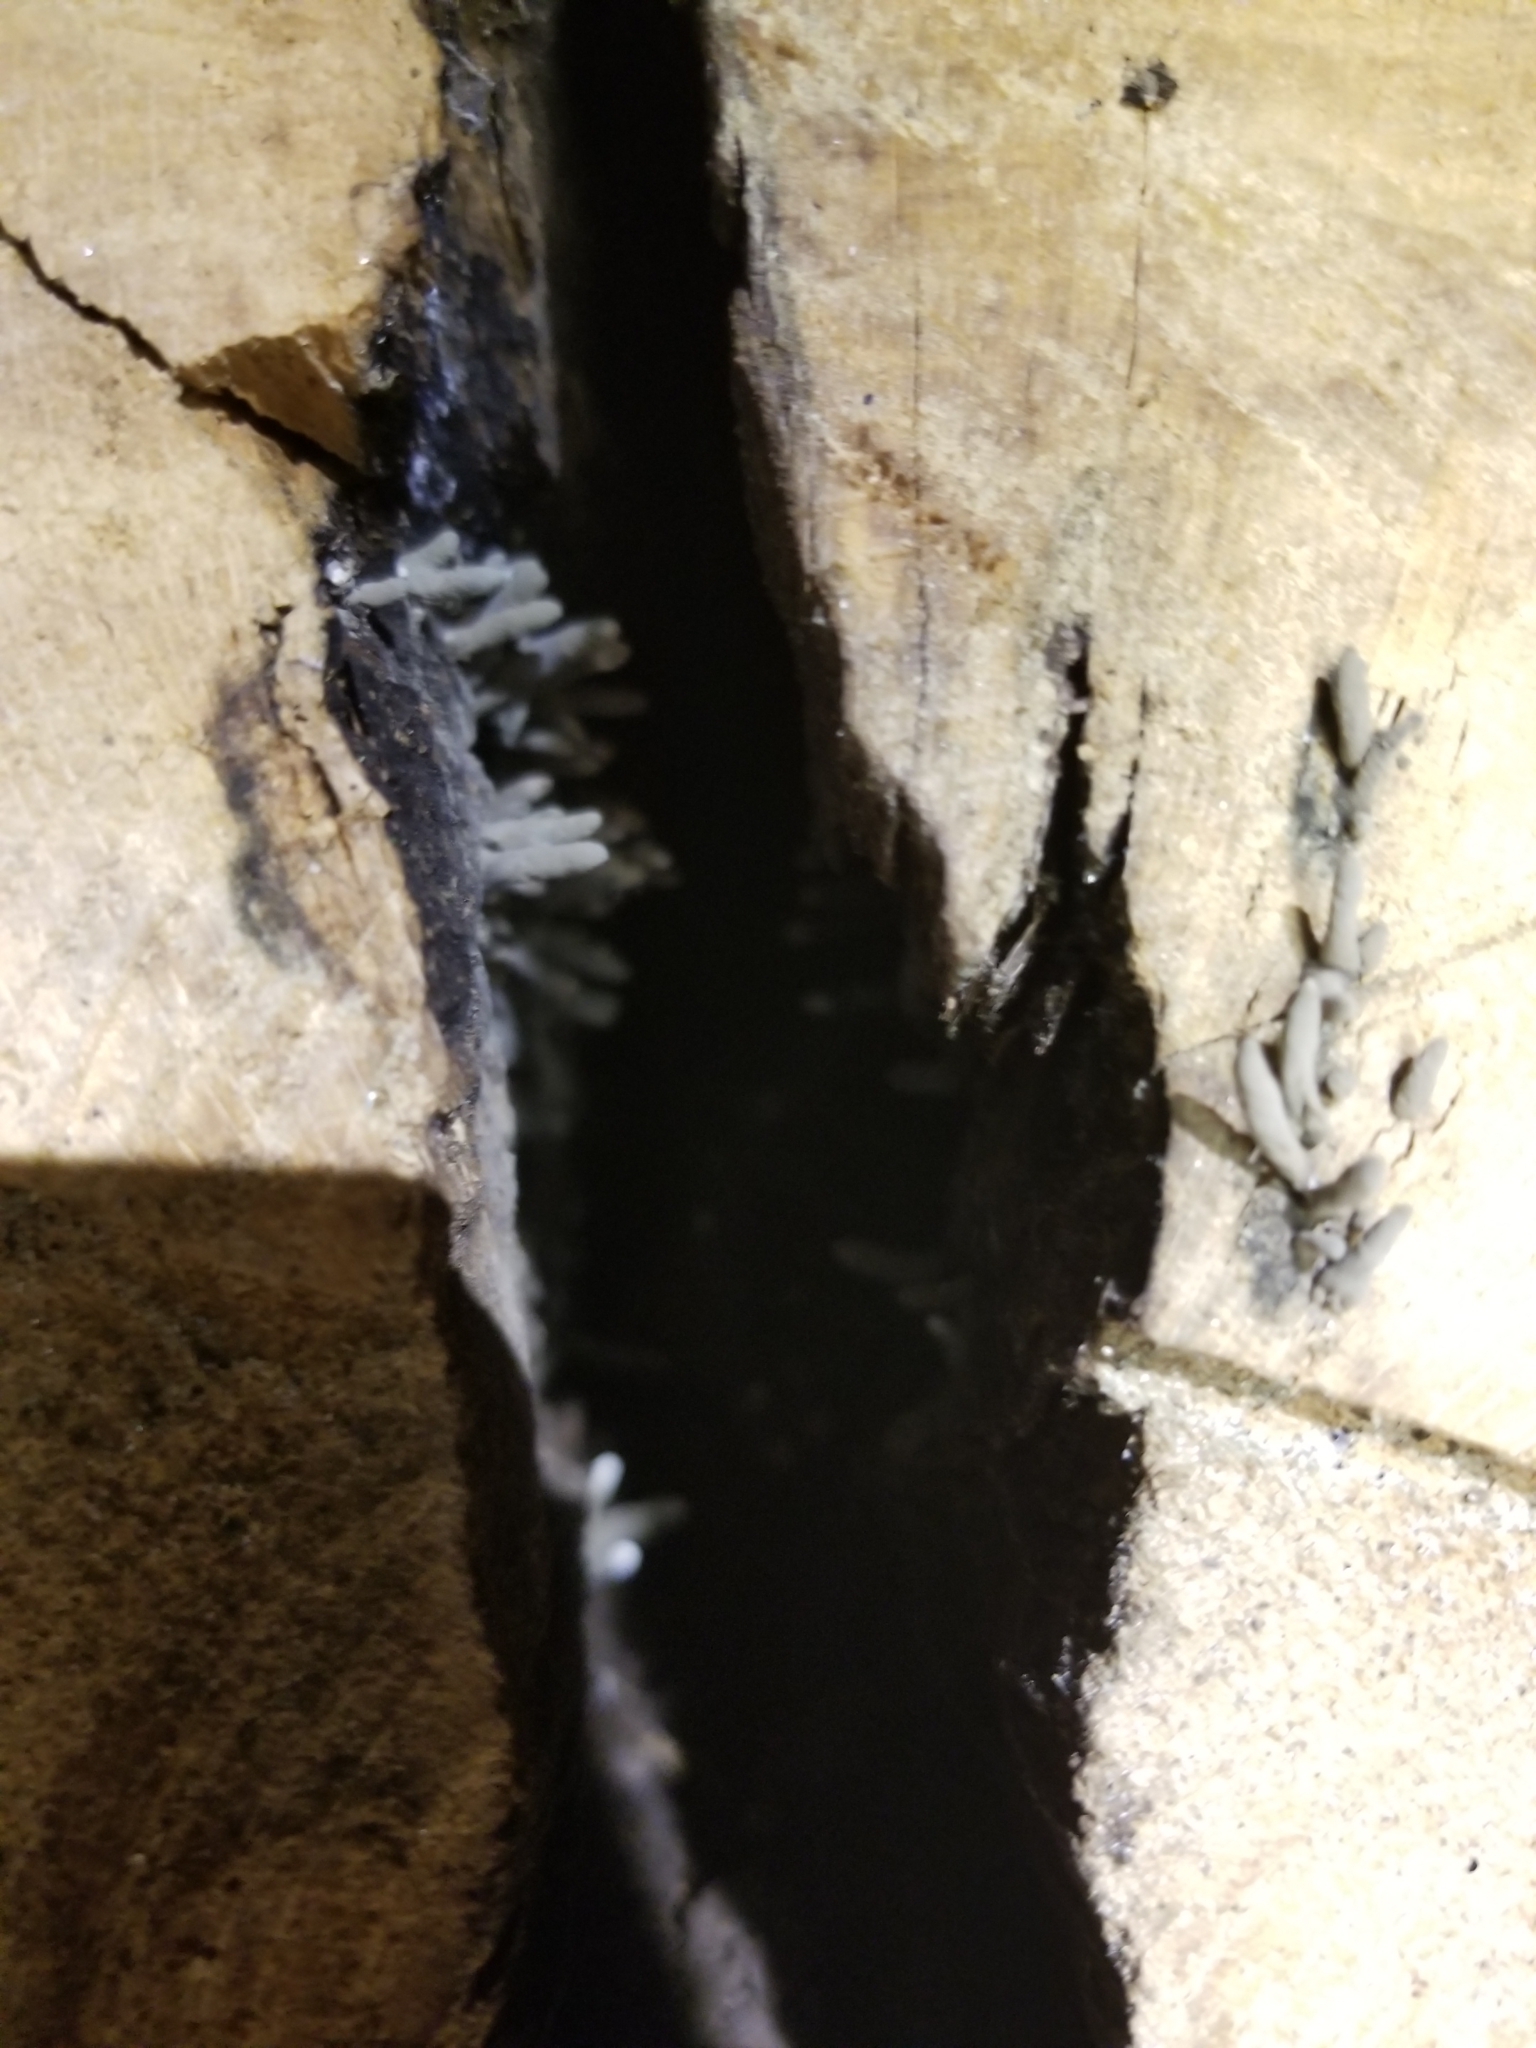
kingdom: Fungi
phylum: Ascomycota
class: Sordariomycetes
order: Xylariales
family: Xylariaceae
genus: Xylaria
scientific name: Xylaria polymorpha
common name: Dead man's fingers
